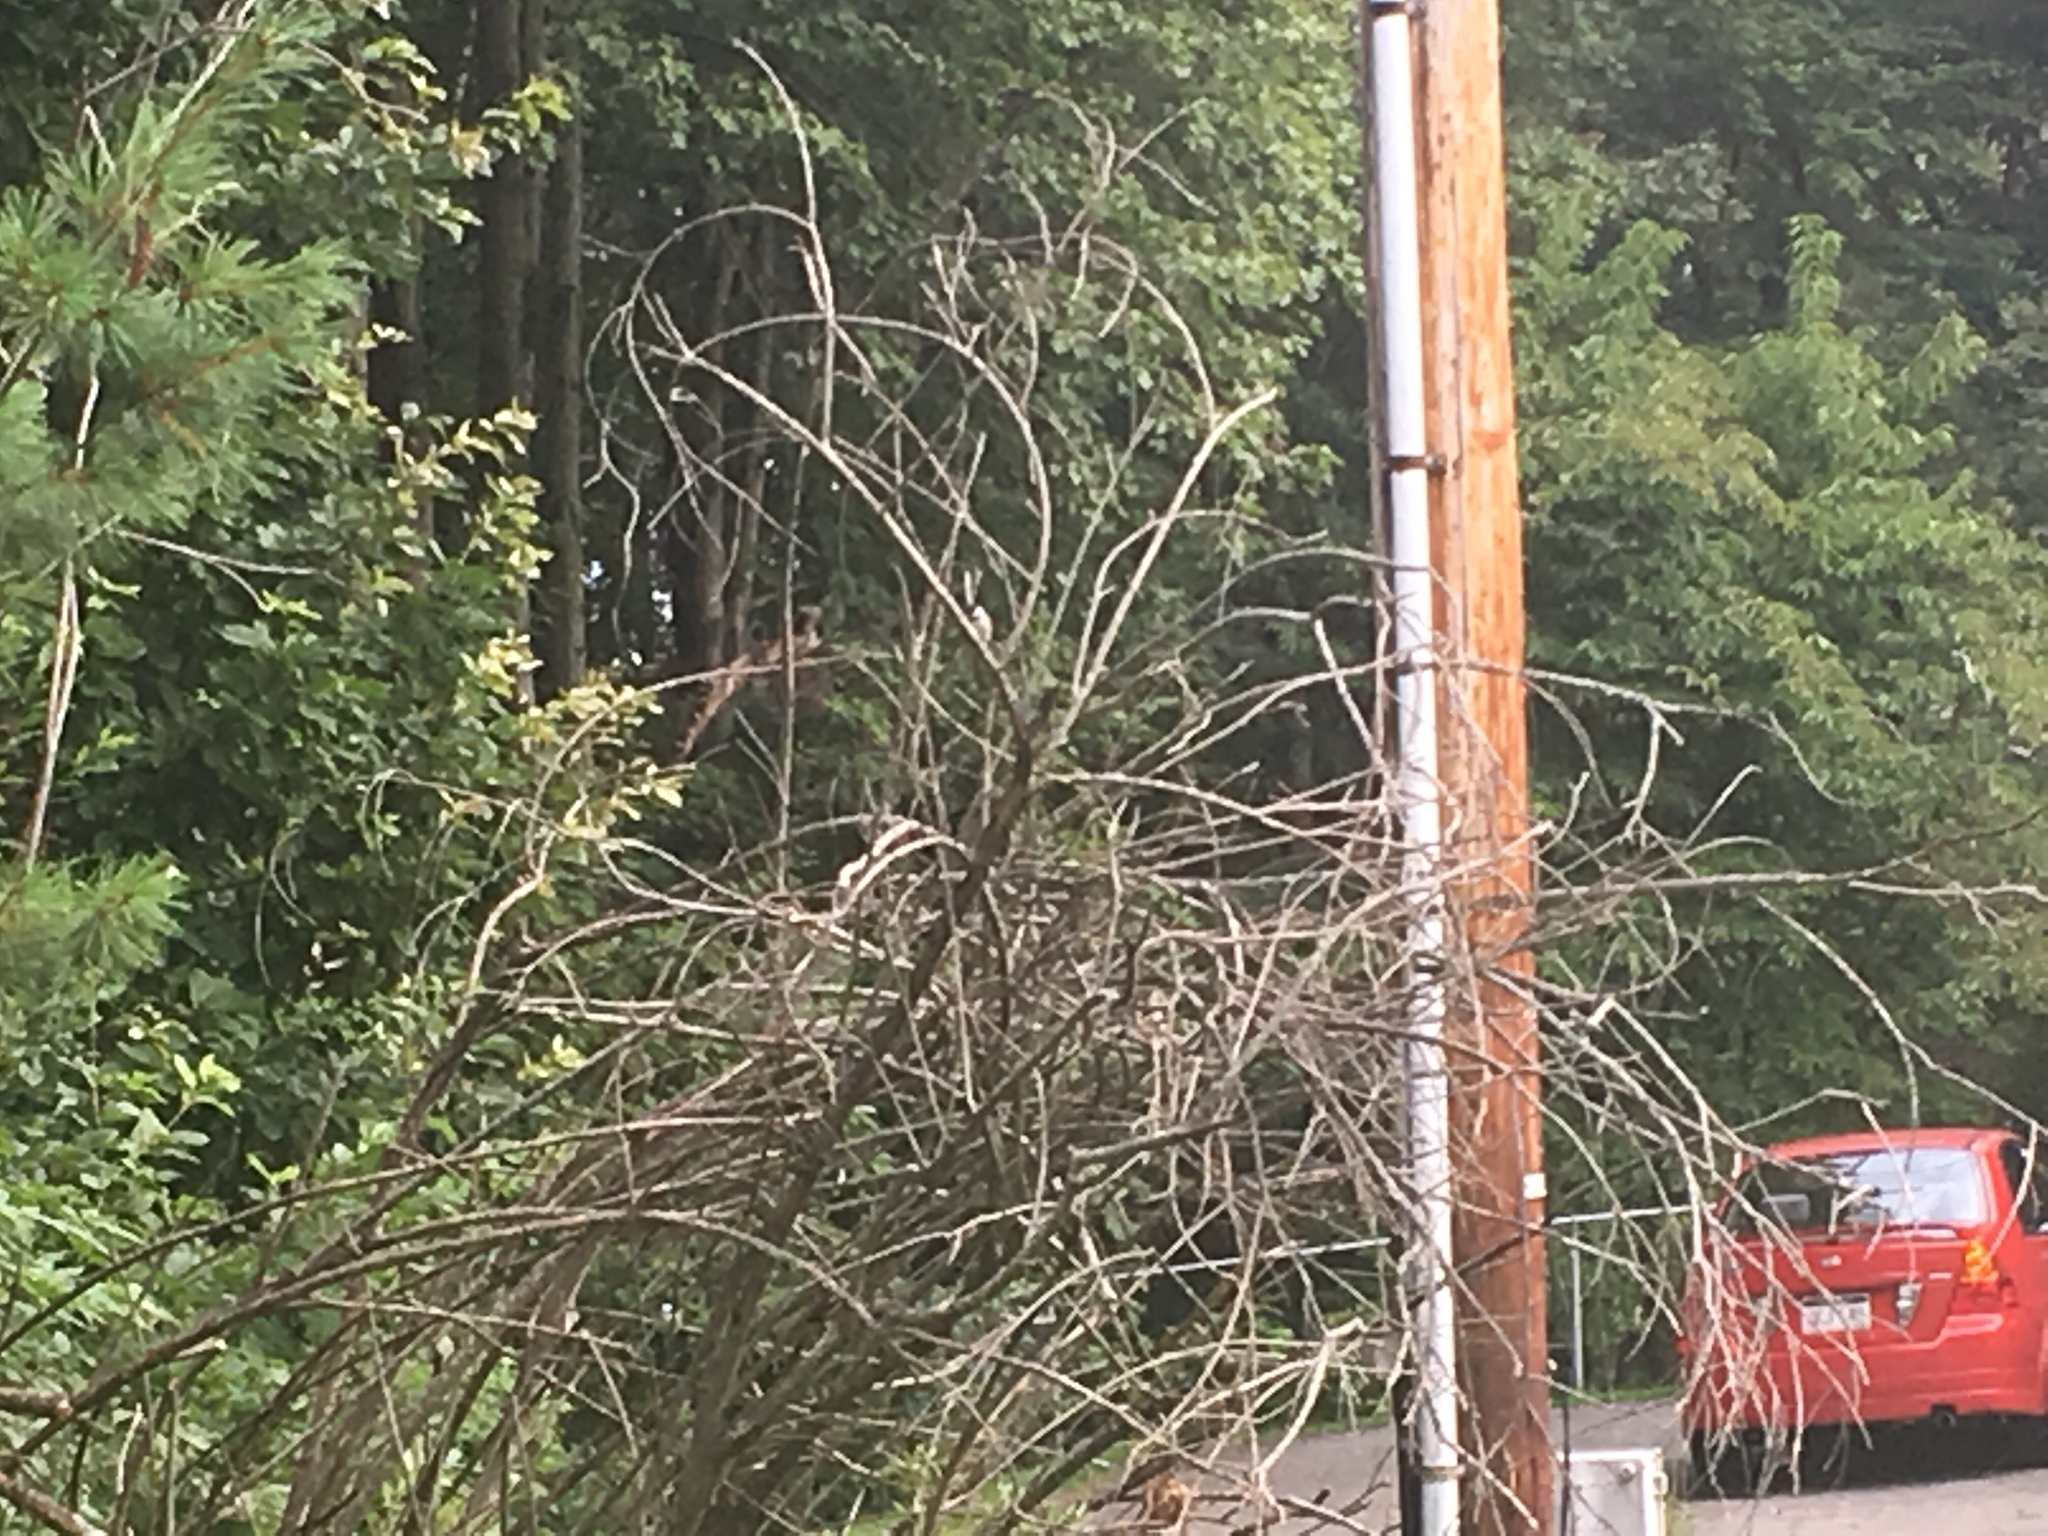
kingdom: Animalia
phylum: Chordata
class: Aves
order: Passeriformes
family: Paridae
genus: Poecile
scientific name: Poecile
